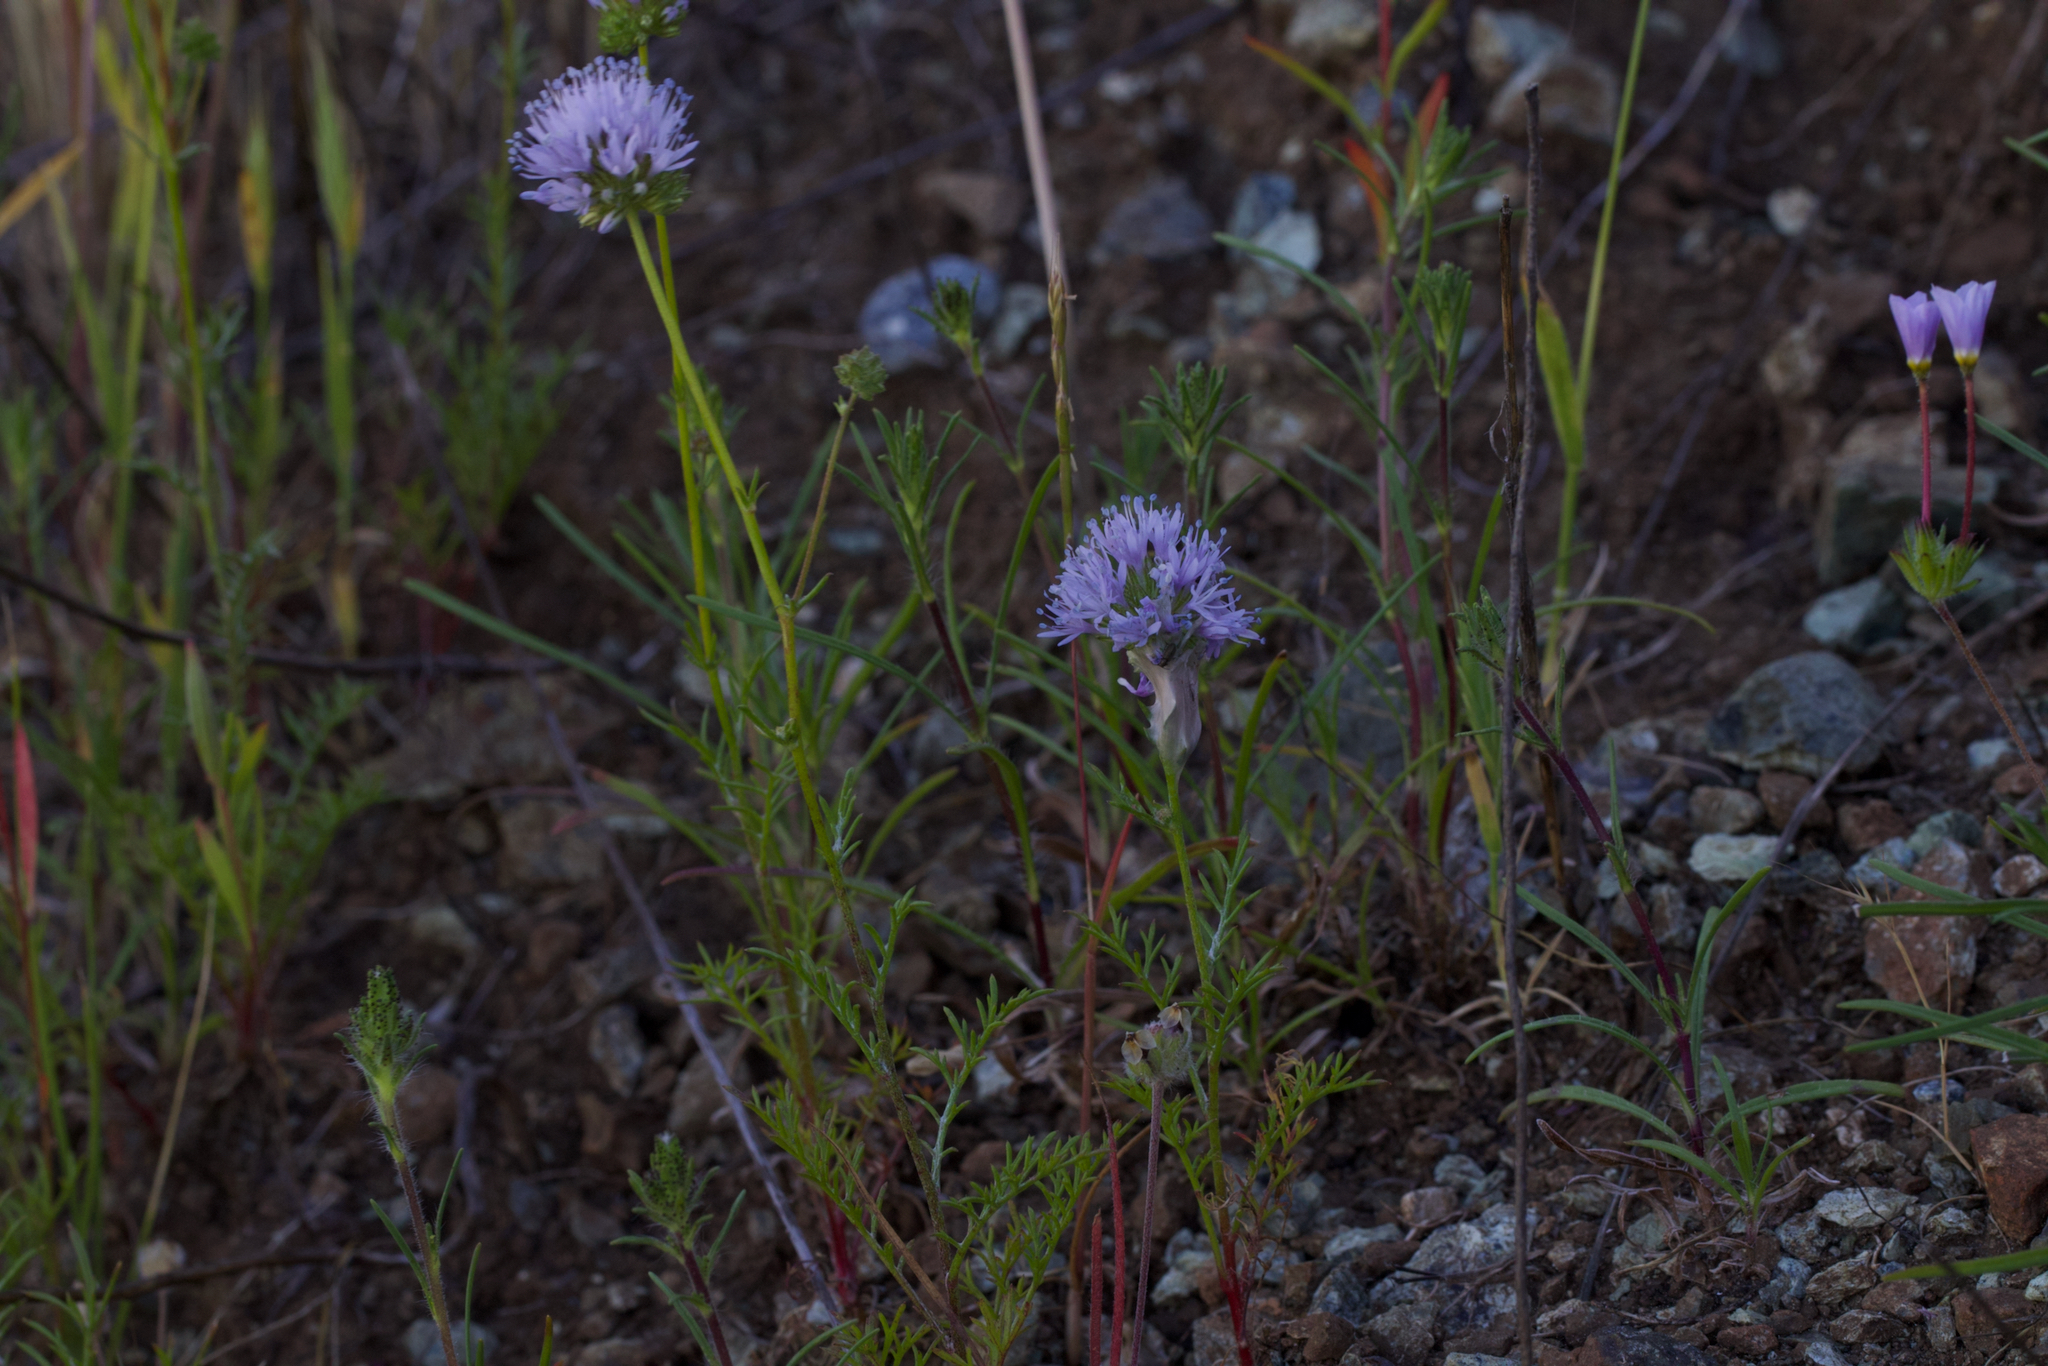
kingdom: Plantae
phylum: Tracheophyta
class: Magnoliopsida
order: Ericales
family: Polemoniaceae
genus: Gilia
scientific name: Gilia capitata
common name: Bluehead gilia
